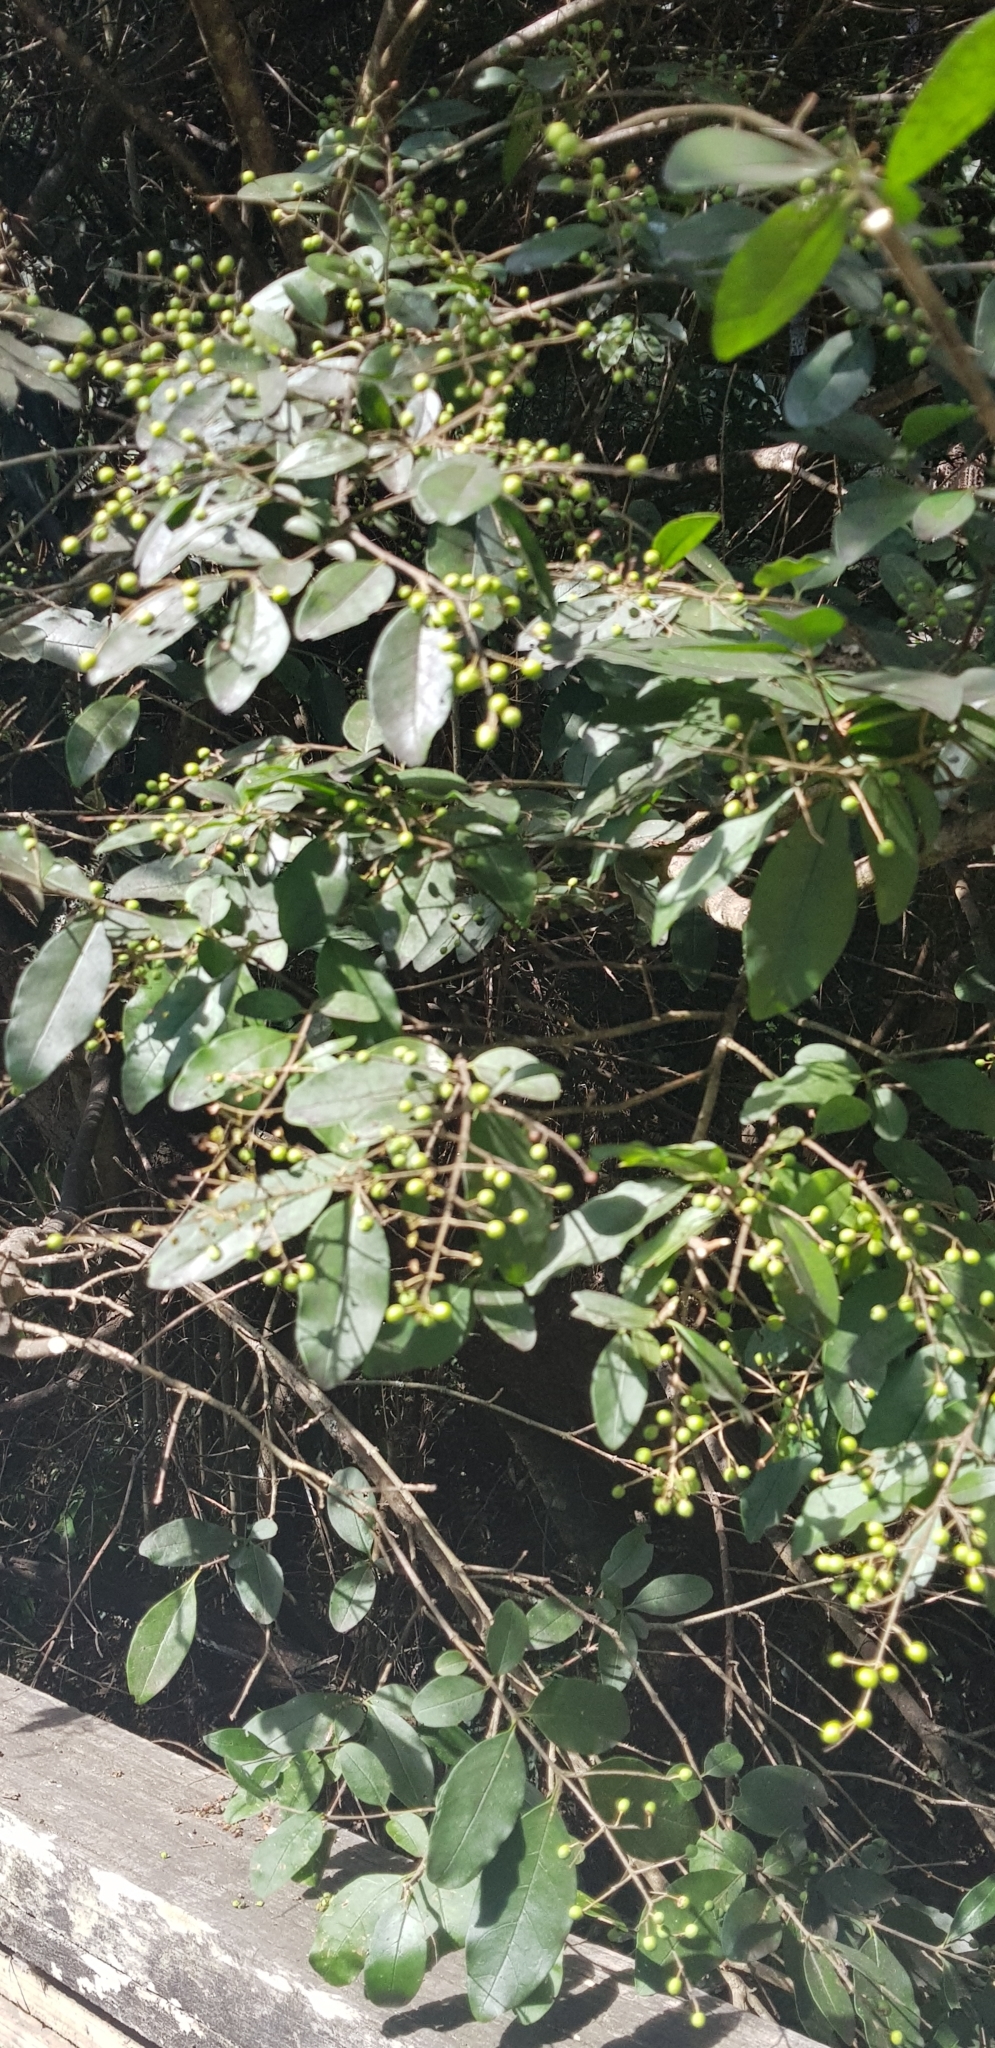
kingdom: Plantae
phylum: Tracheophyta
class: Magnoliopsida
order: Lamiales
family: Oleaceae
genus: Ligustrum
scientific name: Ligustrum sinense
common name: Chinese privet
